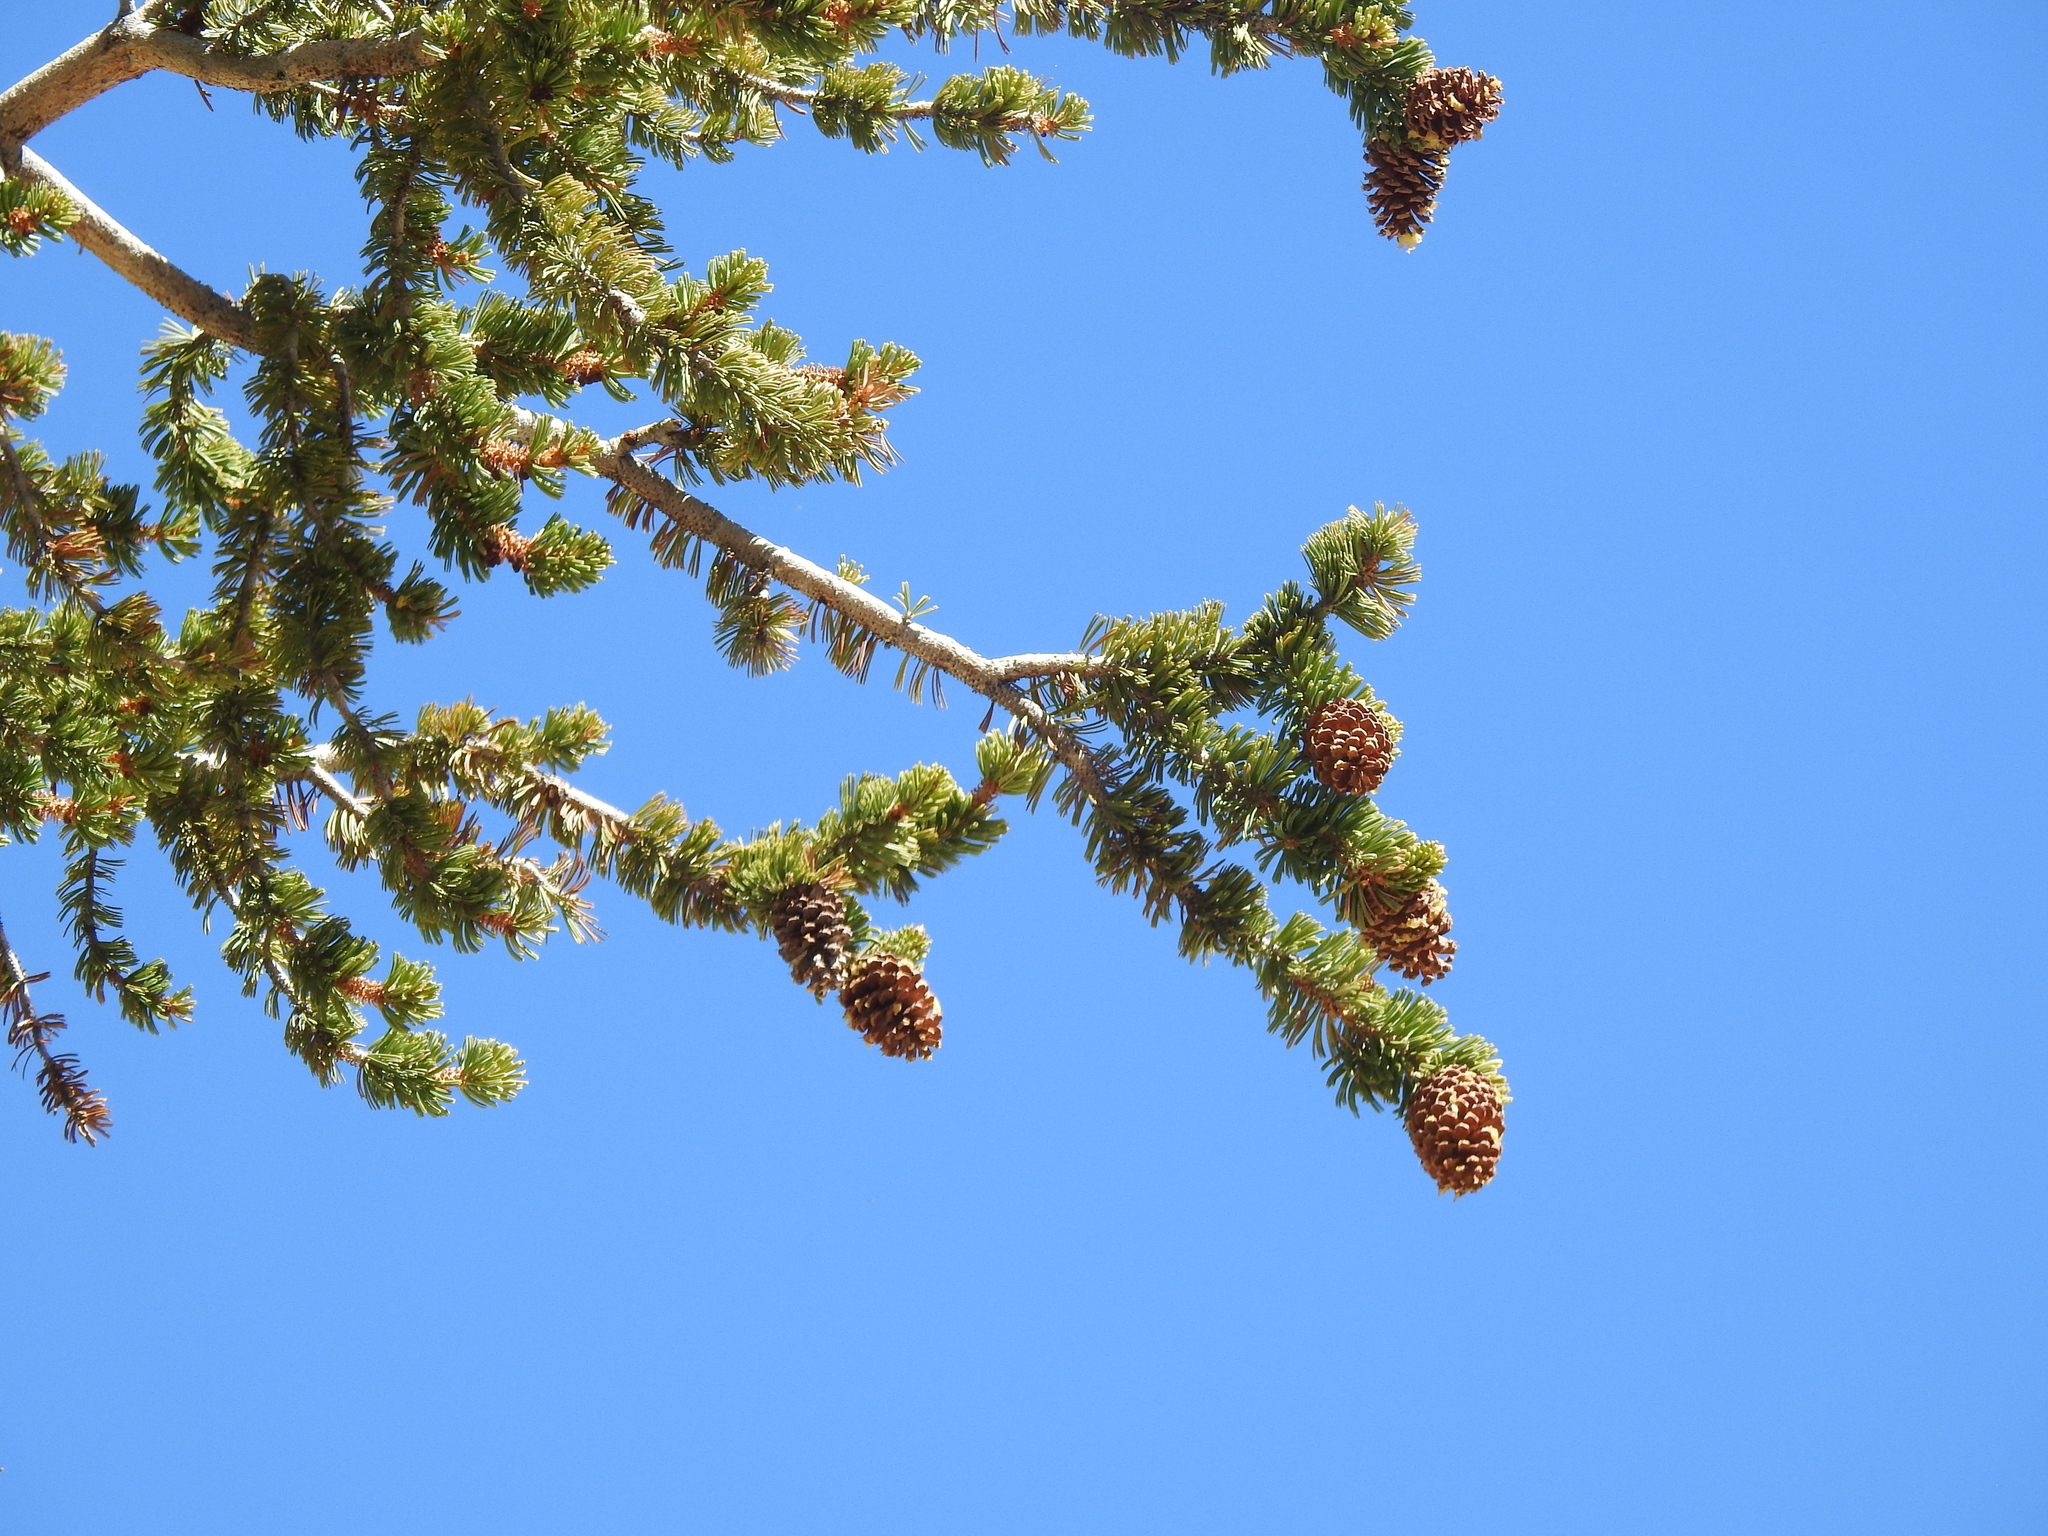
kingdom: Plantae
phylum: Tracheophyta
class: Pinopsida
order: Pinales
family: Pinaceae
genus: Pinus
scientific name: Pinus longaeva
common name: Intermountain bristlecone pine
